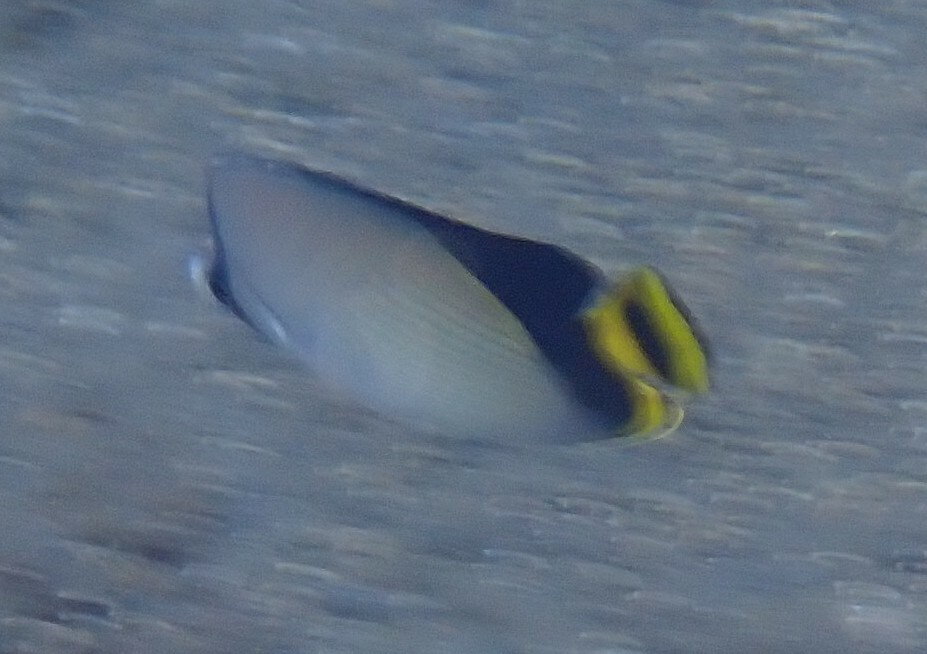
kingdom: Animalia
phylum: Chordata
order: Perciformes
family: Chaetodontidae
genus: Chaetodon
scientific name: Chaetodon decussatus
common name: Indian vagabond butterflyfish
